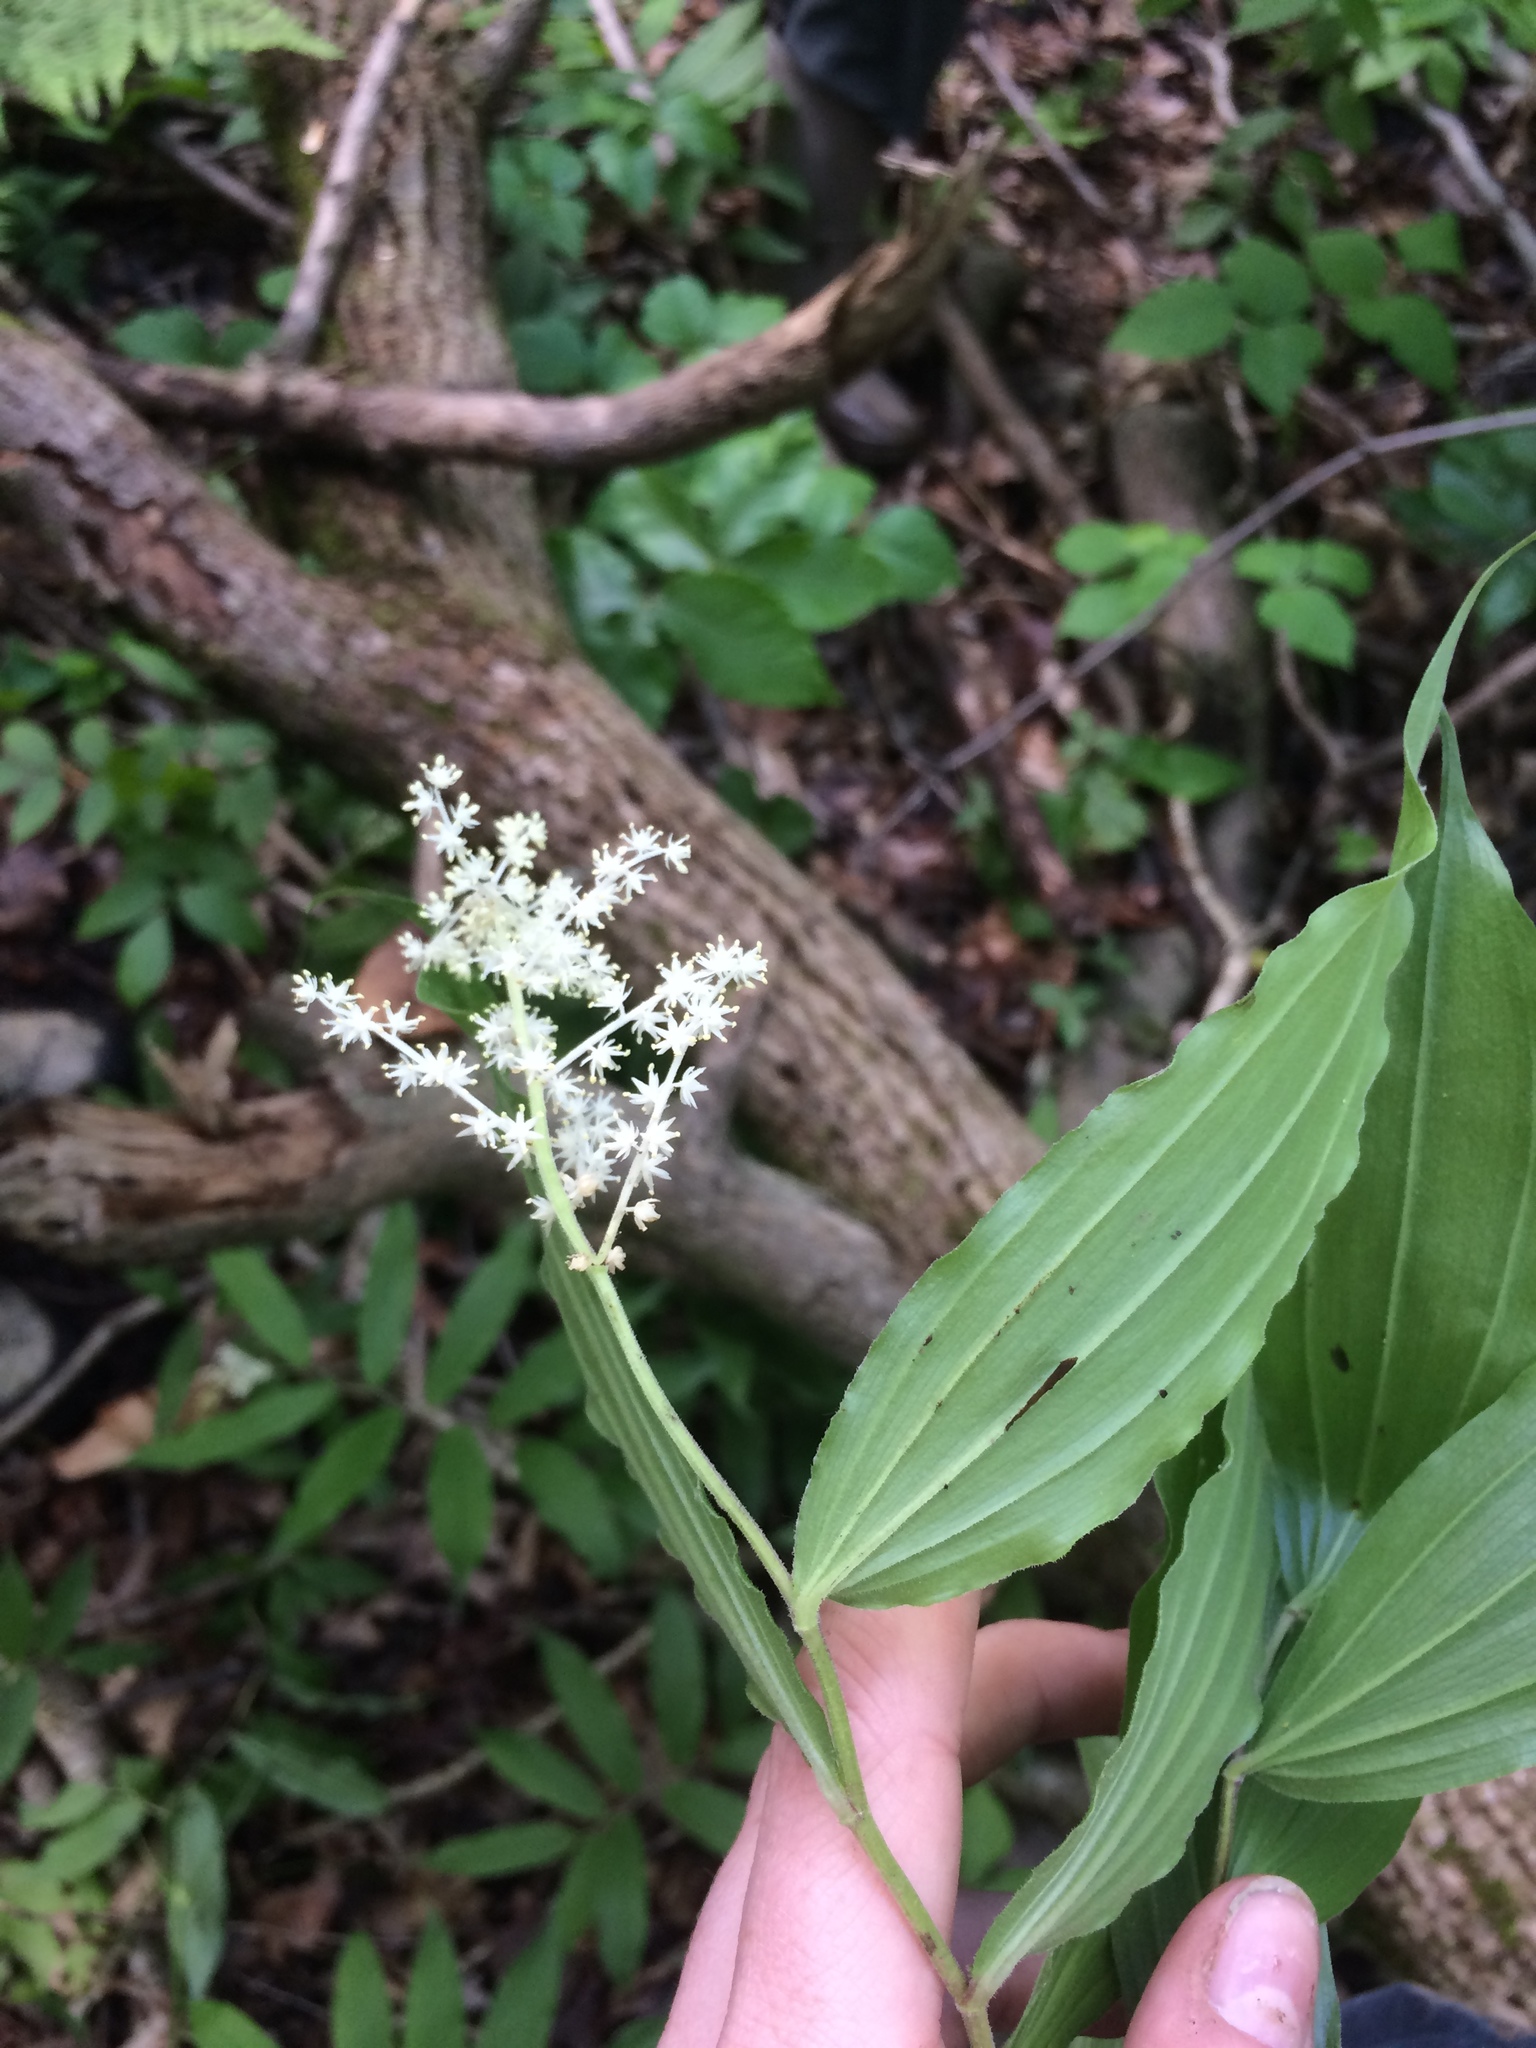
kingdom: Plantae
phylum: Tracheophyta
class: Liliopsida
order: Asparagales
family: Asparagaceae
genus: Maianthemum
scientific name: Maianthemum racemosum
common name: False spikenard
